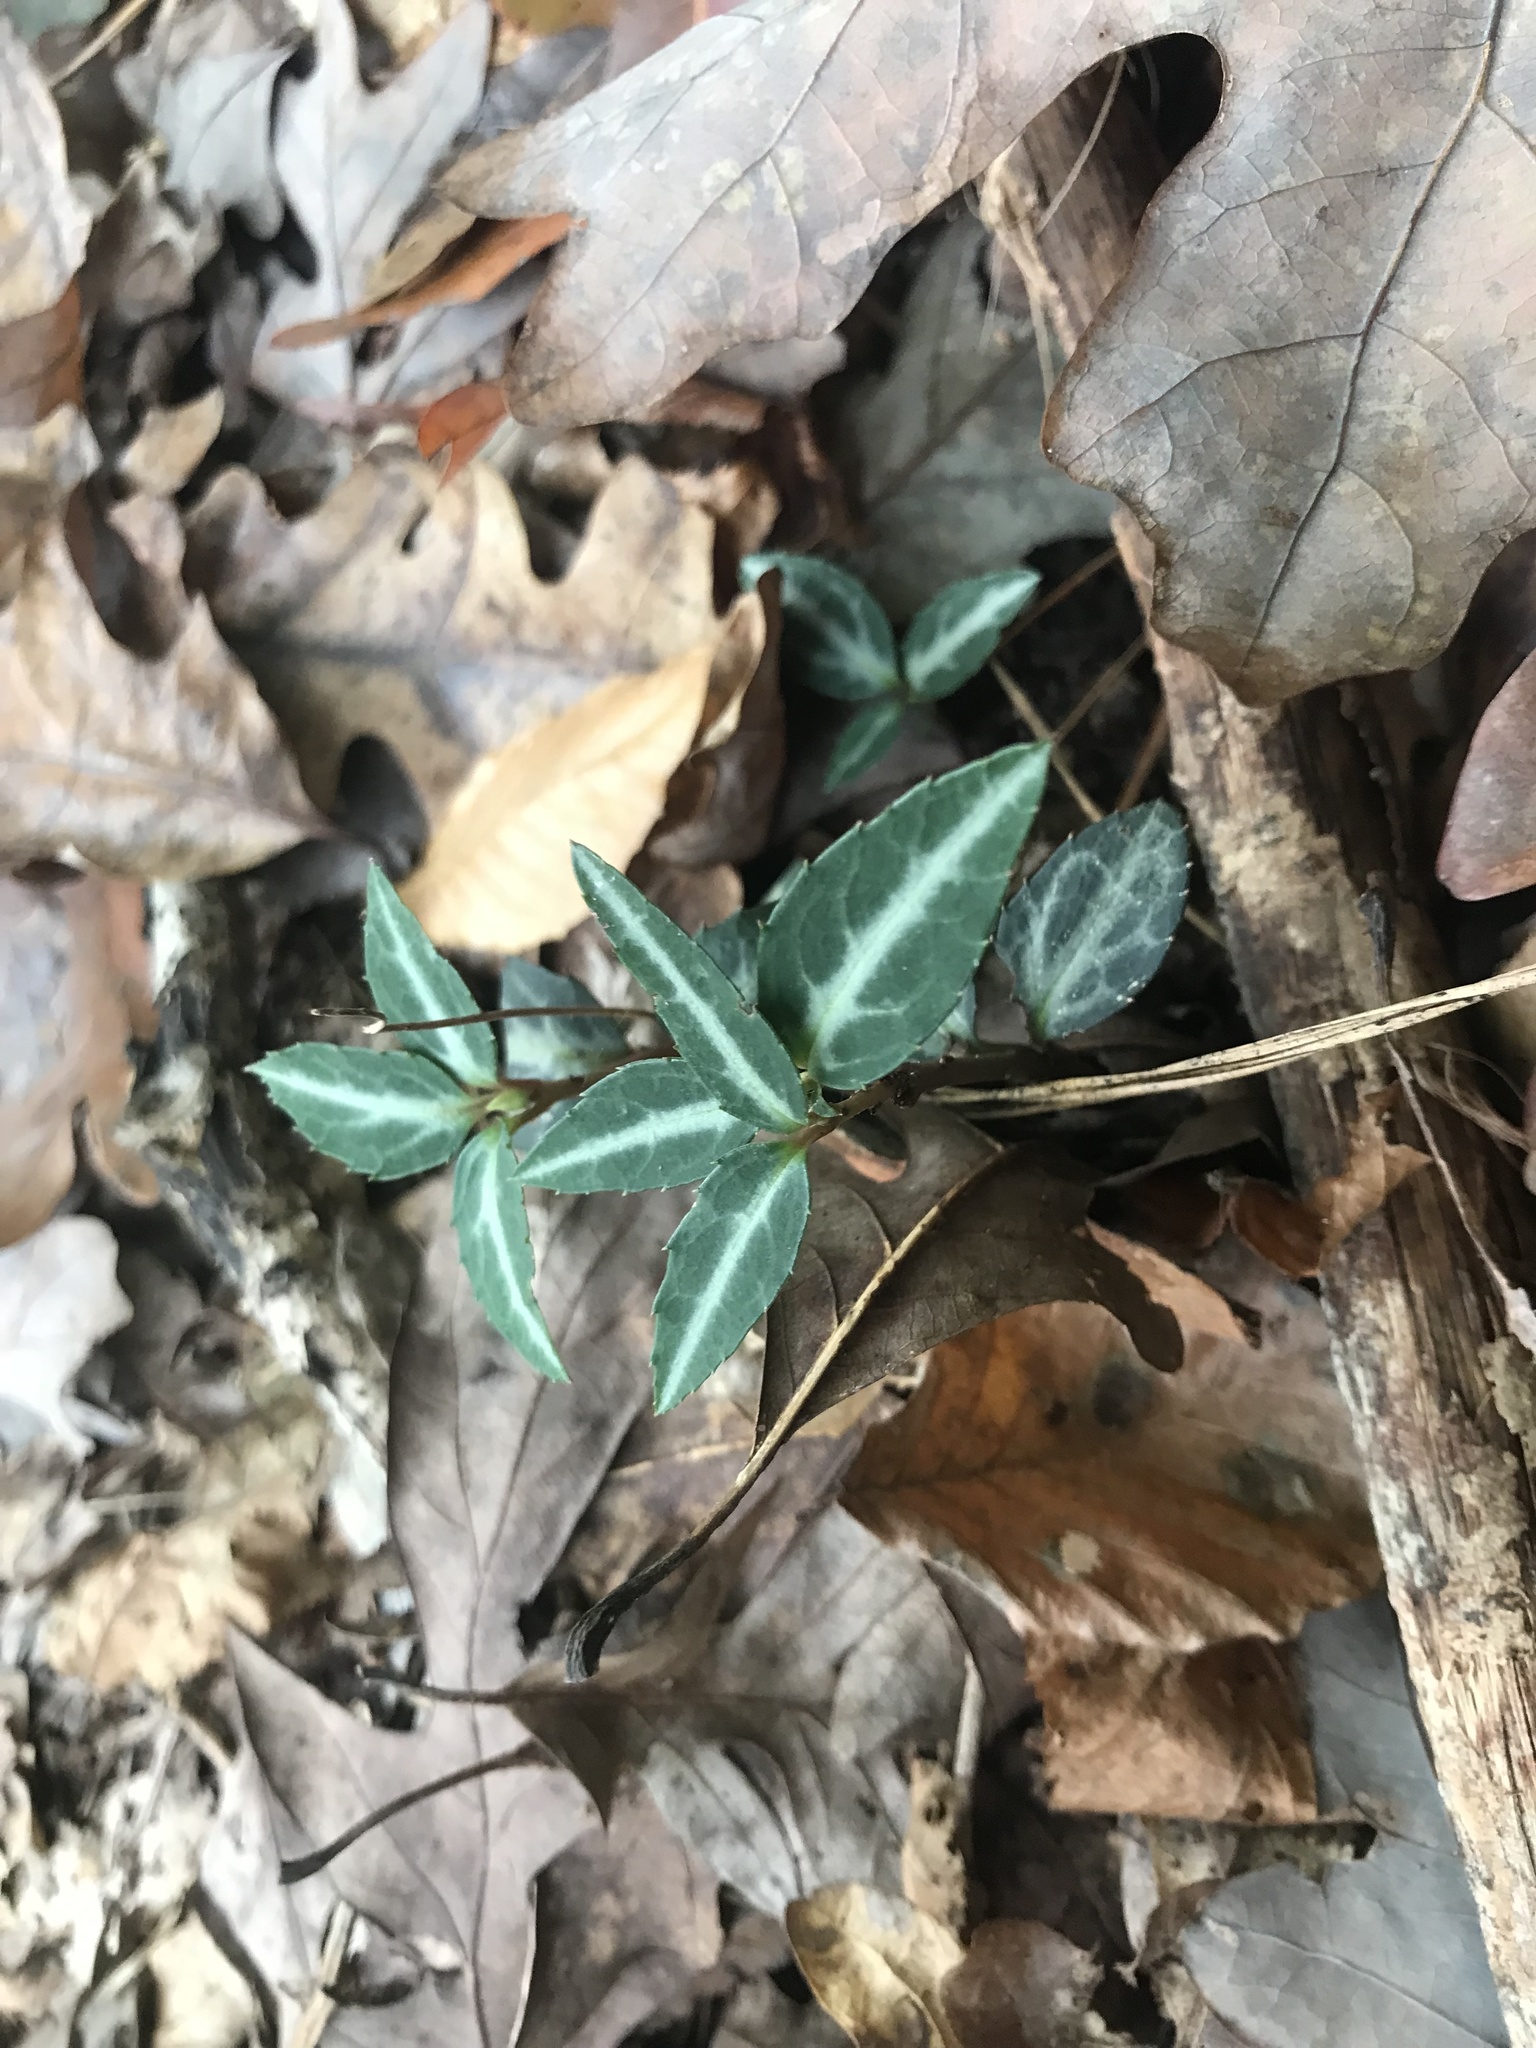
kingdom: Plantae
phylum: Tracheophyta
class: Magnoliopsida
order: Ericales
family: Ericaceae
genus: Chimaphila
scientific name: Chimaphila maculata
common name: Spotted pipsissewa
